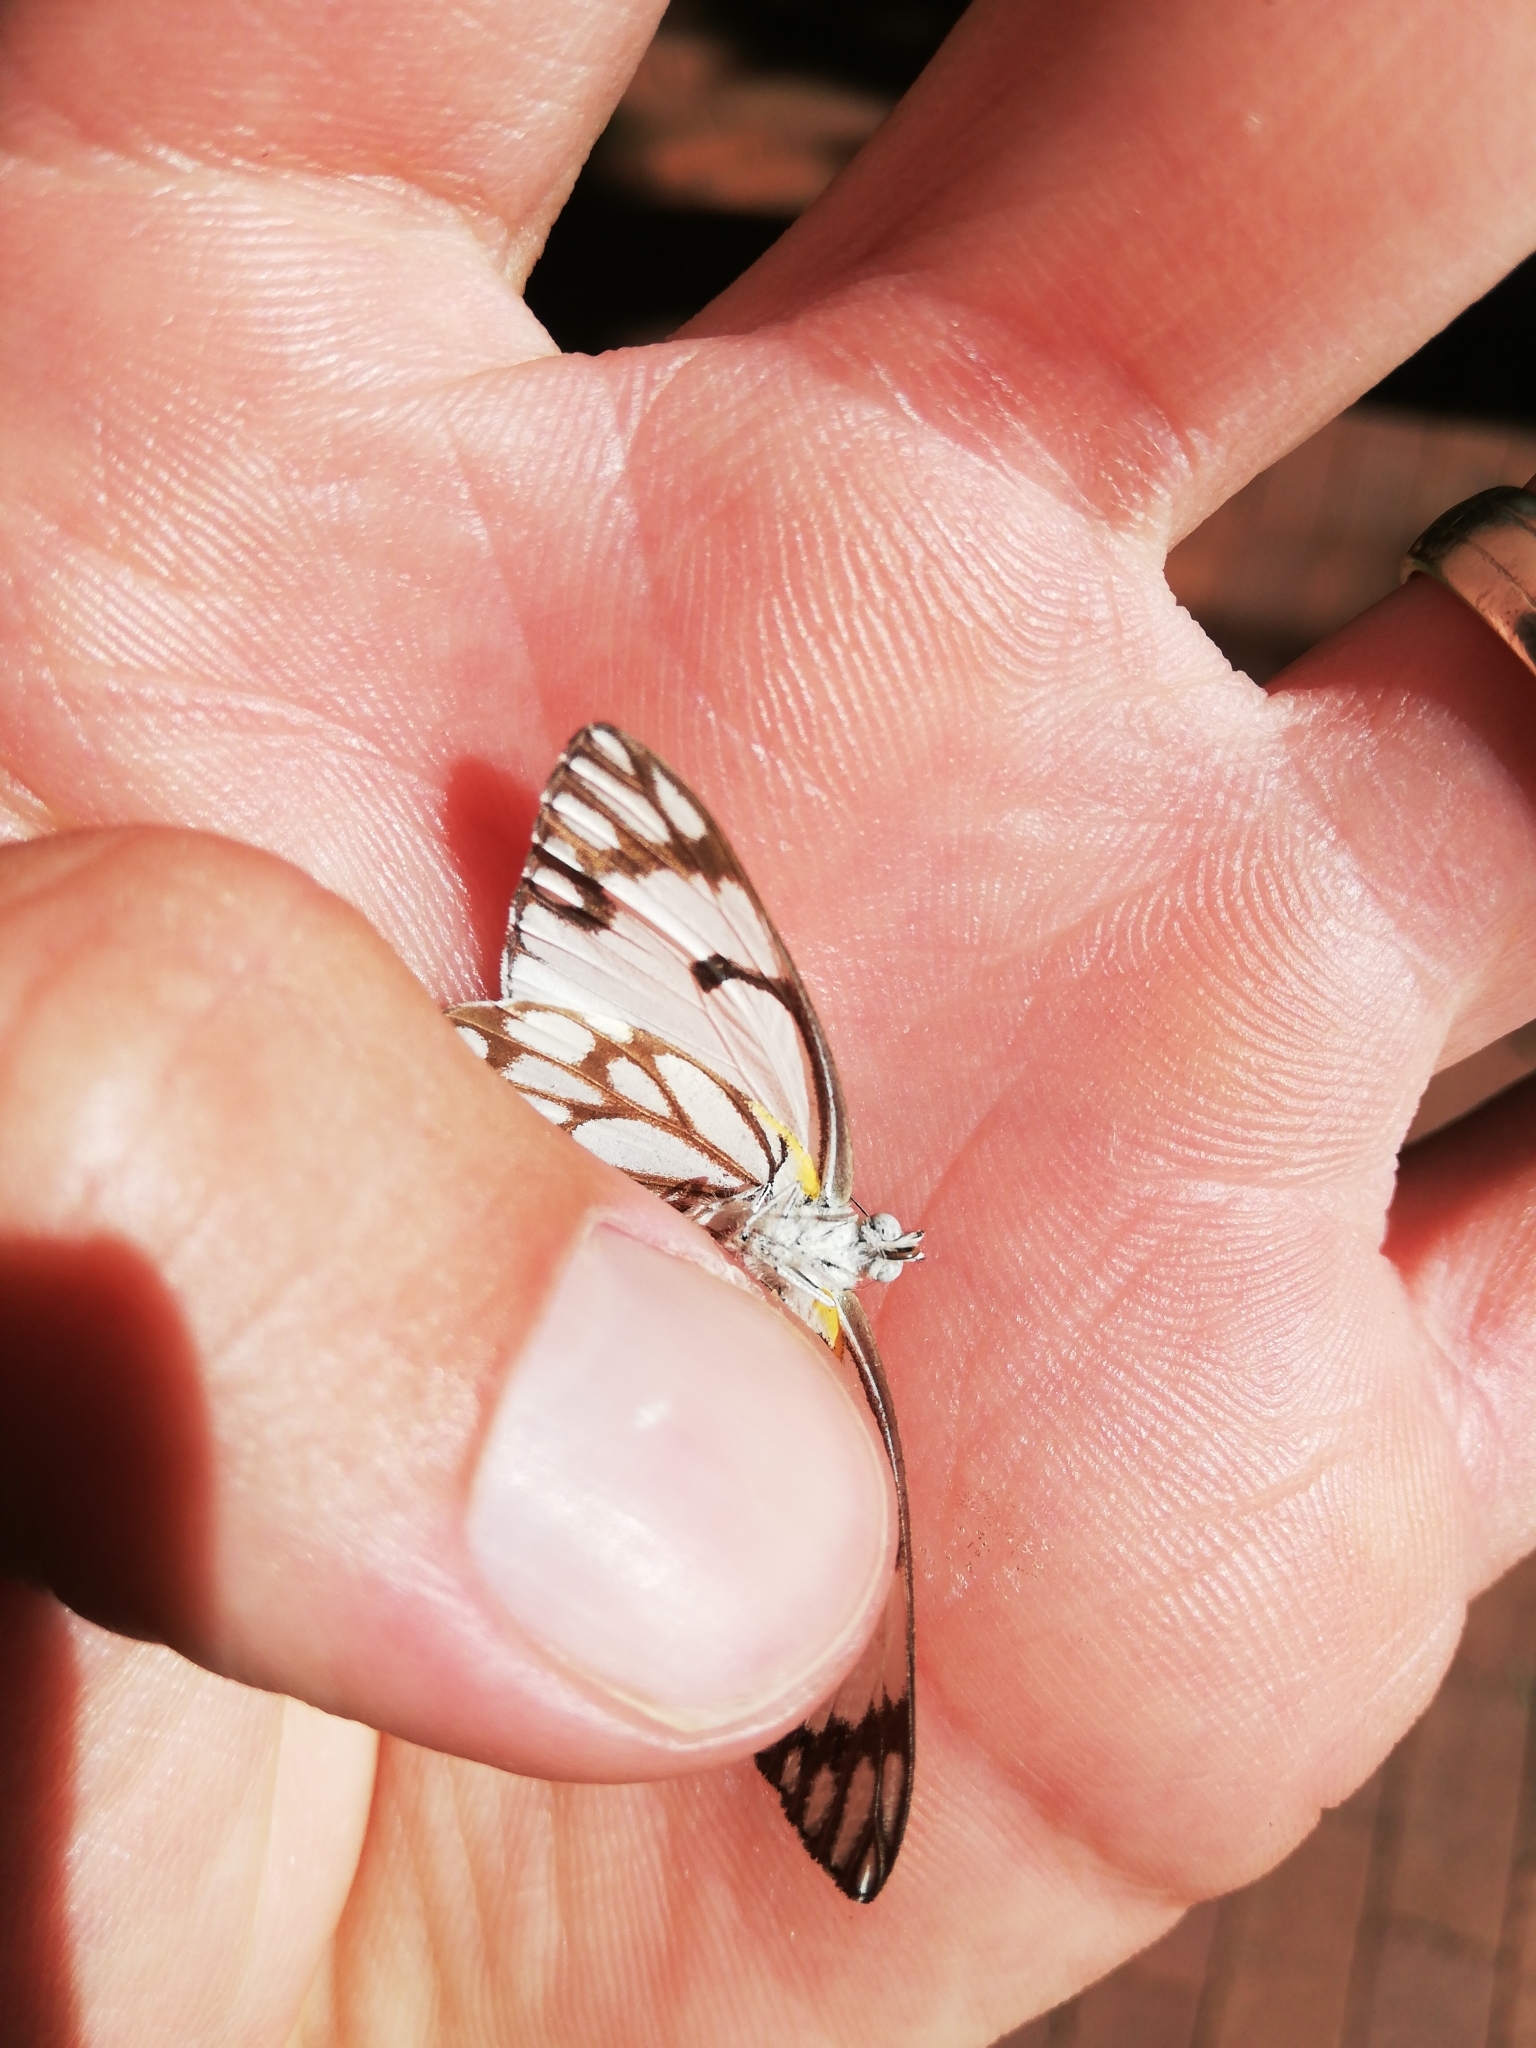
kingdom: Animalia
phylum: Arthropoda
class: Insecta
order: Lepidoptera
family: Pieridae
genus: Belenois
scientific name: Belenois aurota
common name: Brown-veined white
